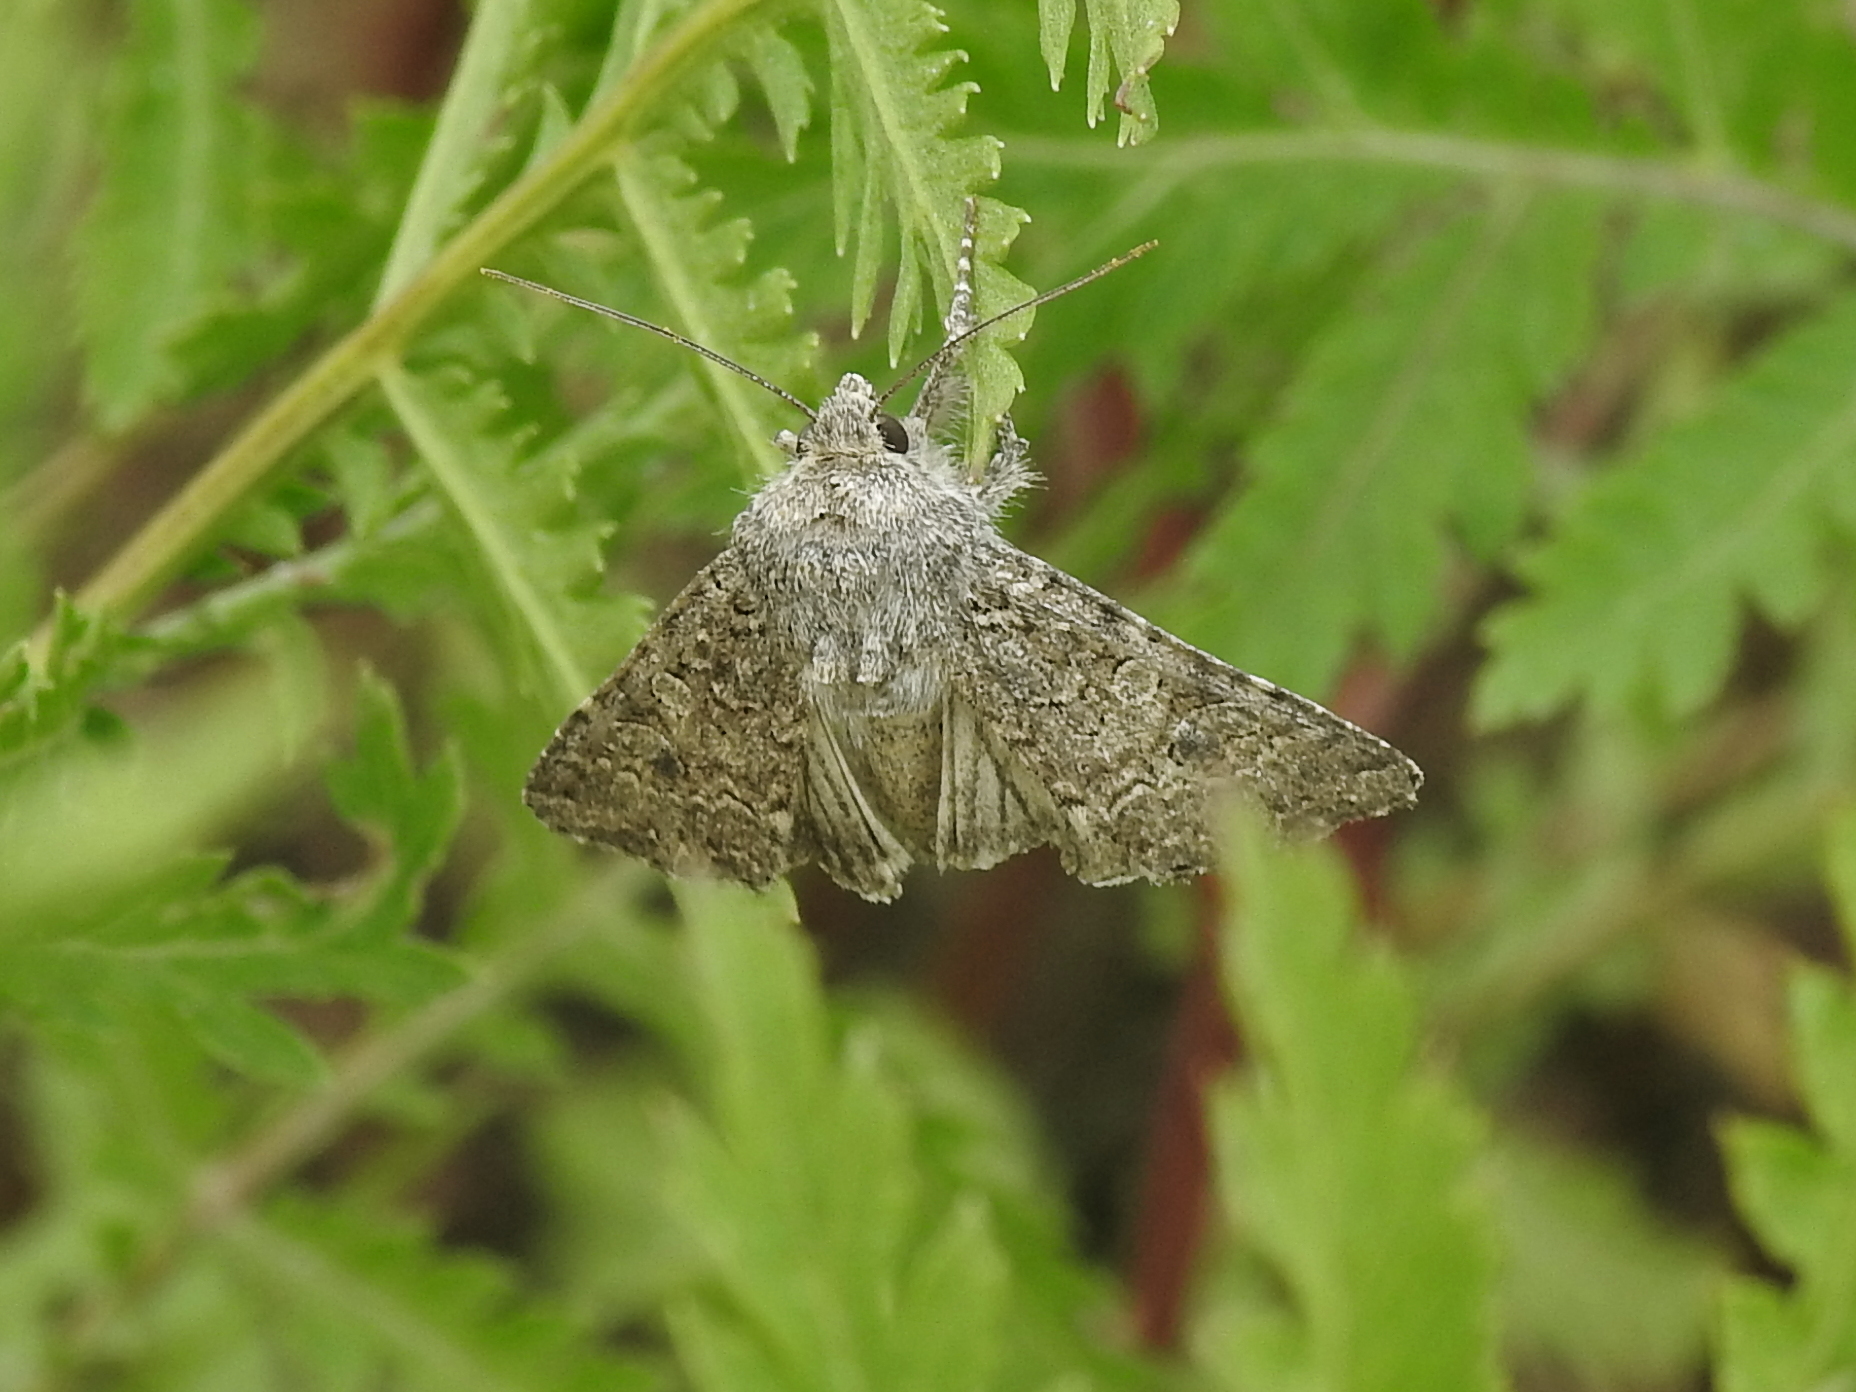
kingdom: Animalia
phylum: Arthropoda
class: Insecta
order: Lepidoptera
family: Noctuidae
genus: Anarta
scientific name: Anarta trifolii
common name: Clover cutworm moth
